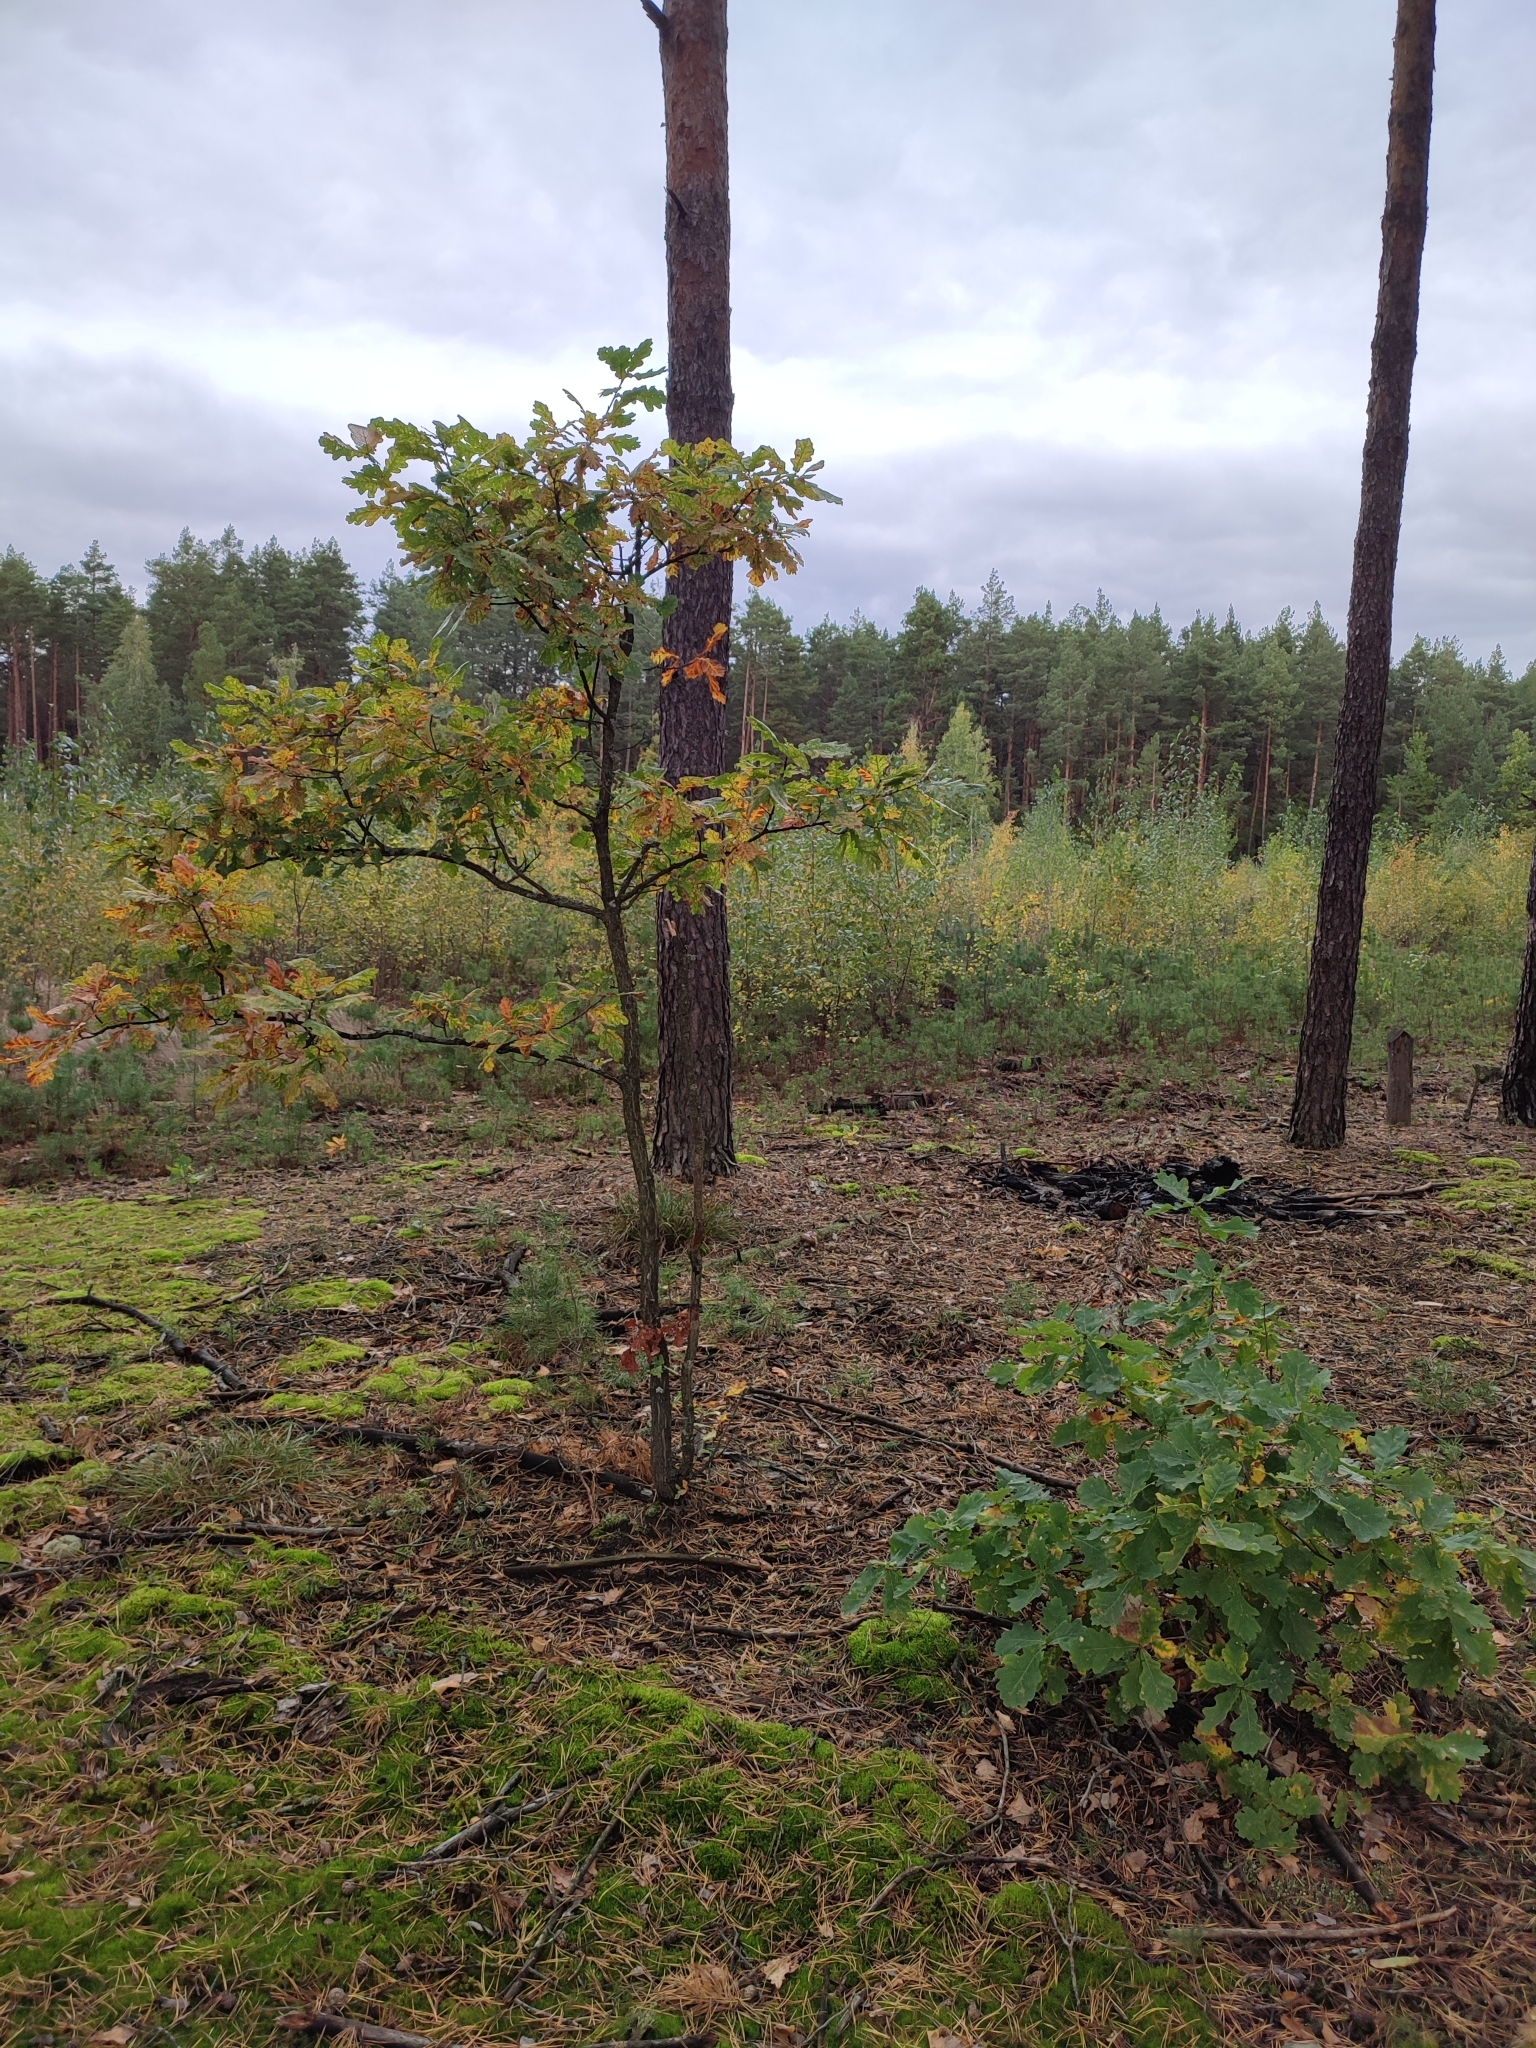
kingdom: Plantae
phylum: Tracheophyta
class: Magnoliopsida
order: Fagales
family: Fagaceae
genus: Quercus
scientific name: Quercus robur
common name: Pedunculate oak
